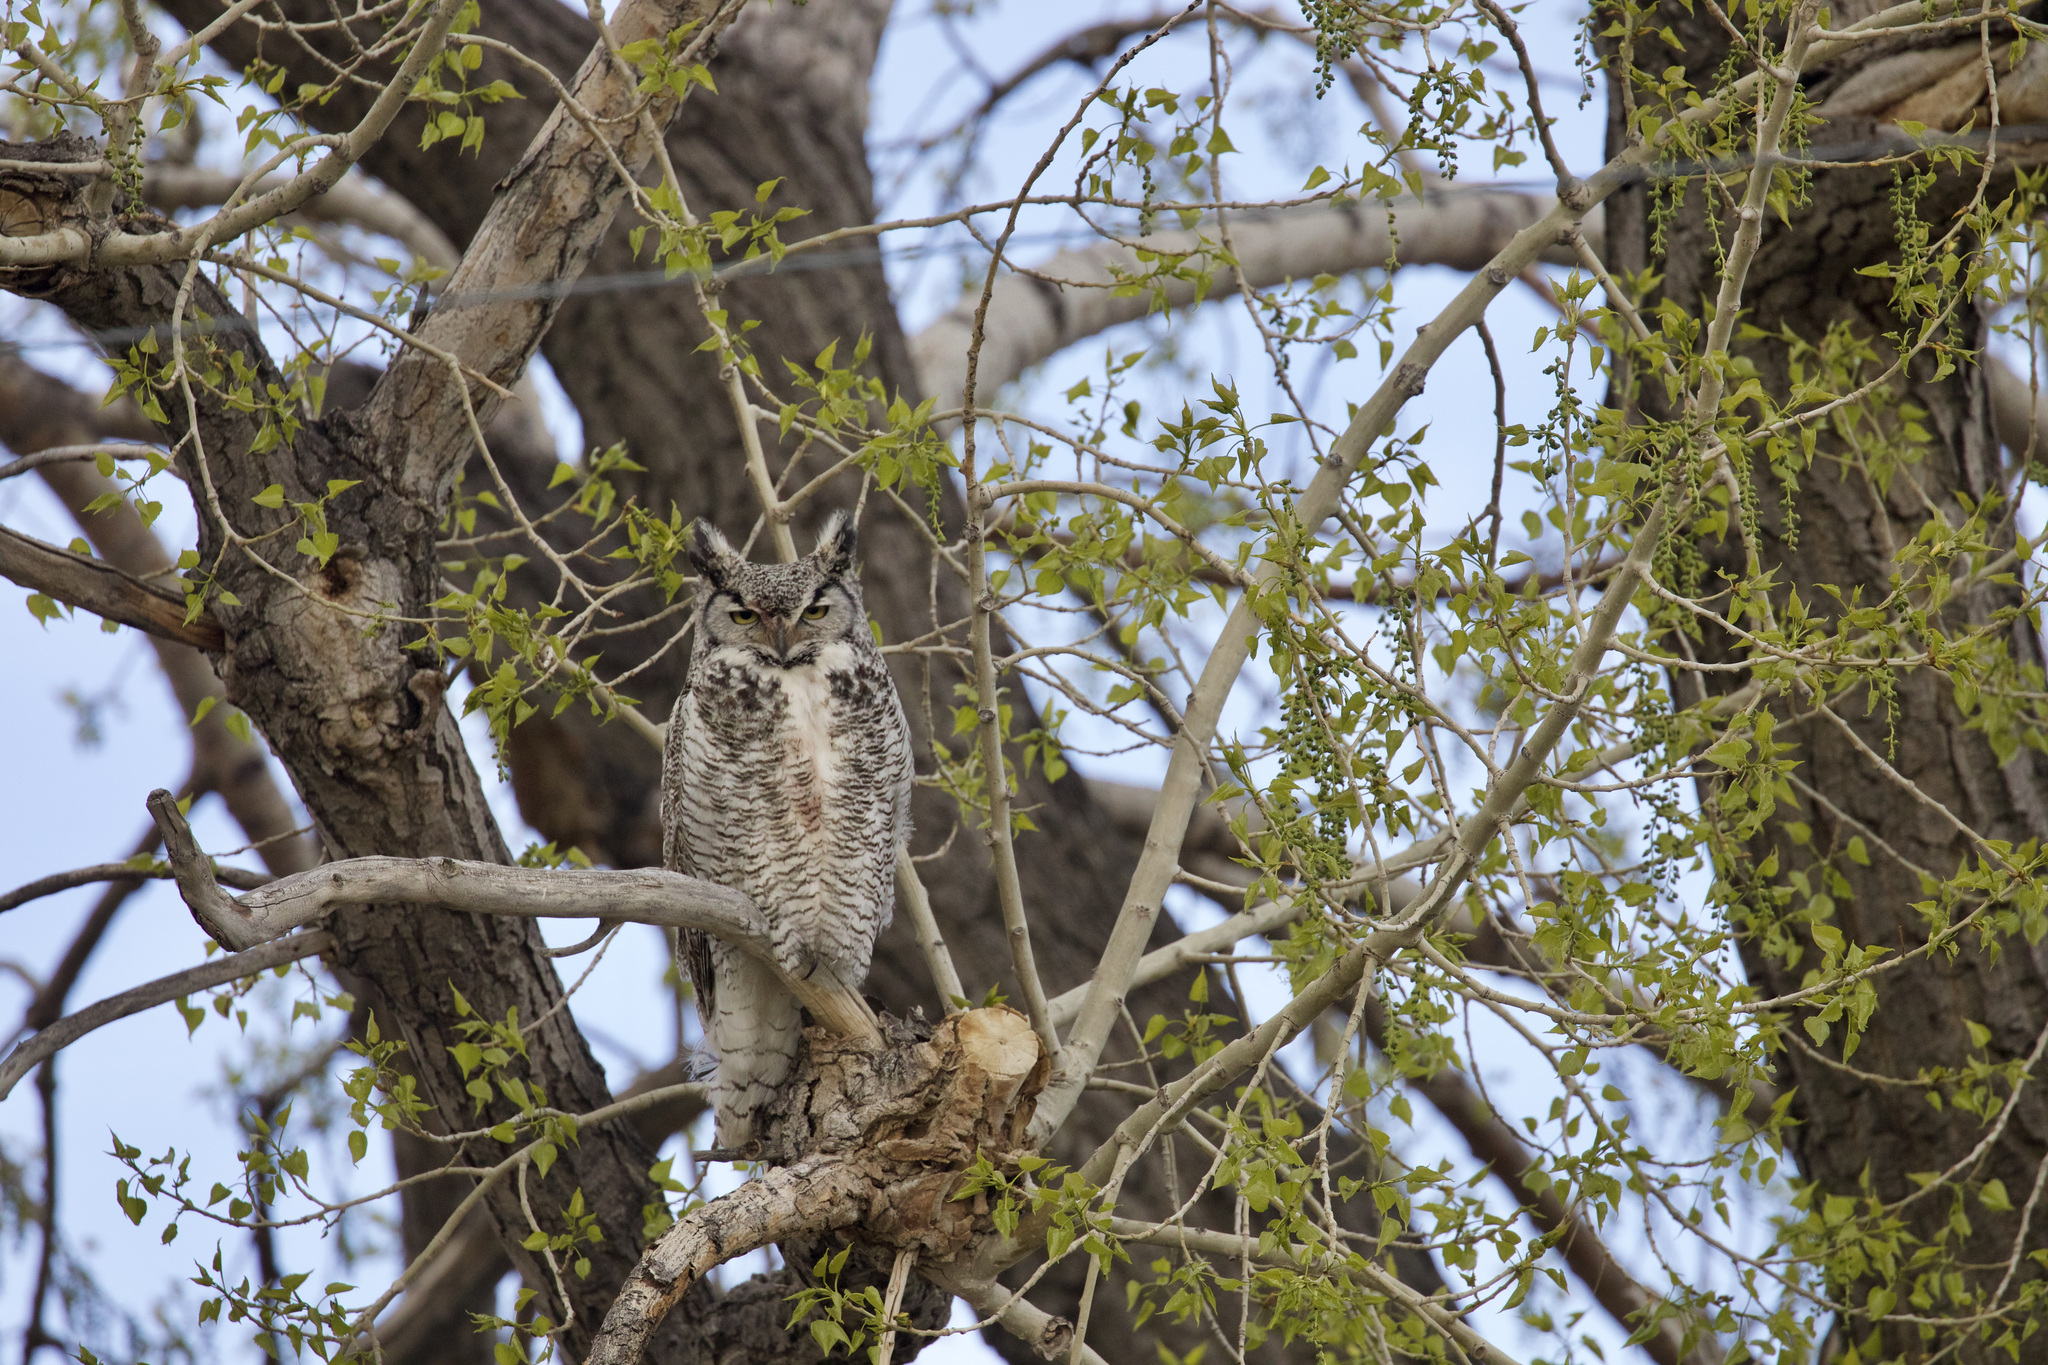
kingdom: Animalia
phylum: Chordata
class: Aves
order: Strigiformes
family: Strigidae
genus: Bubo
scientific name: Bubo virginianus
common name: Great horned owl
